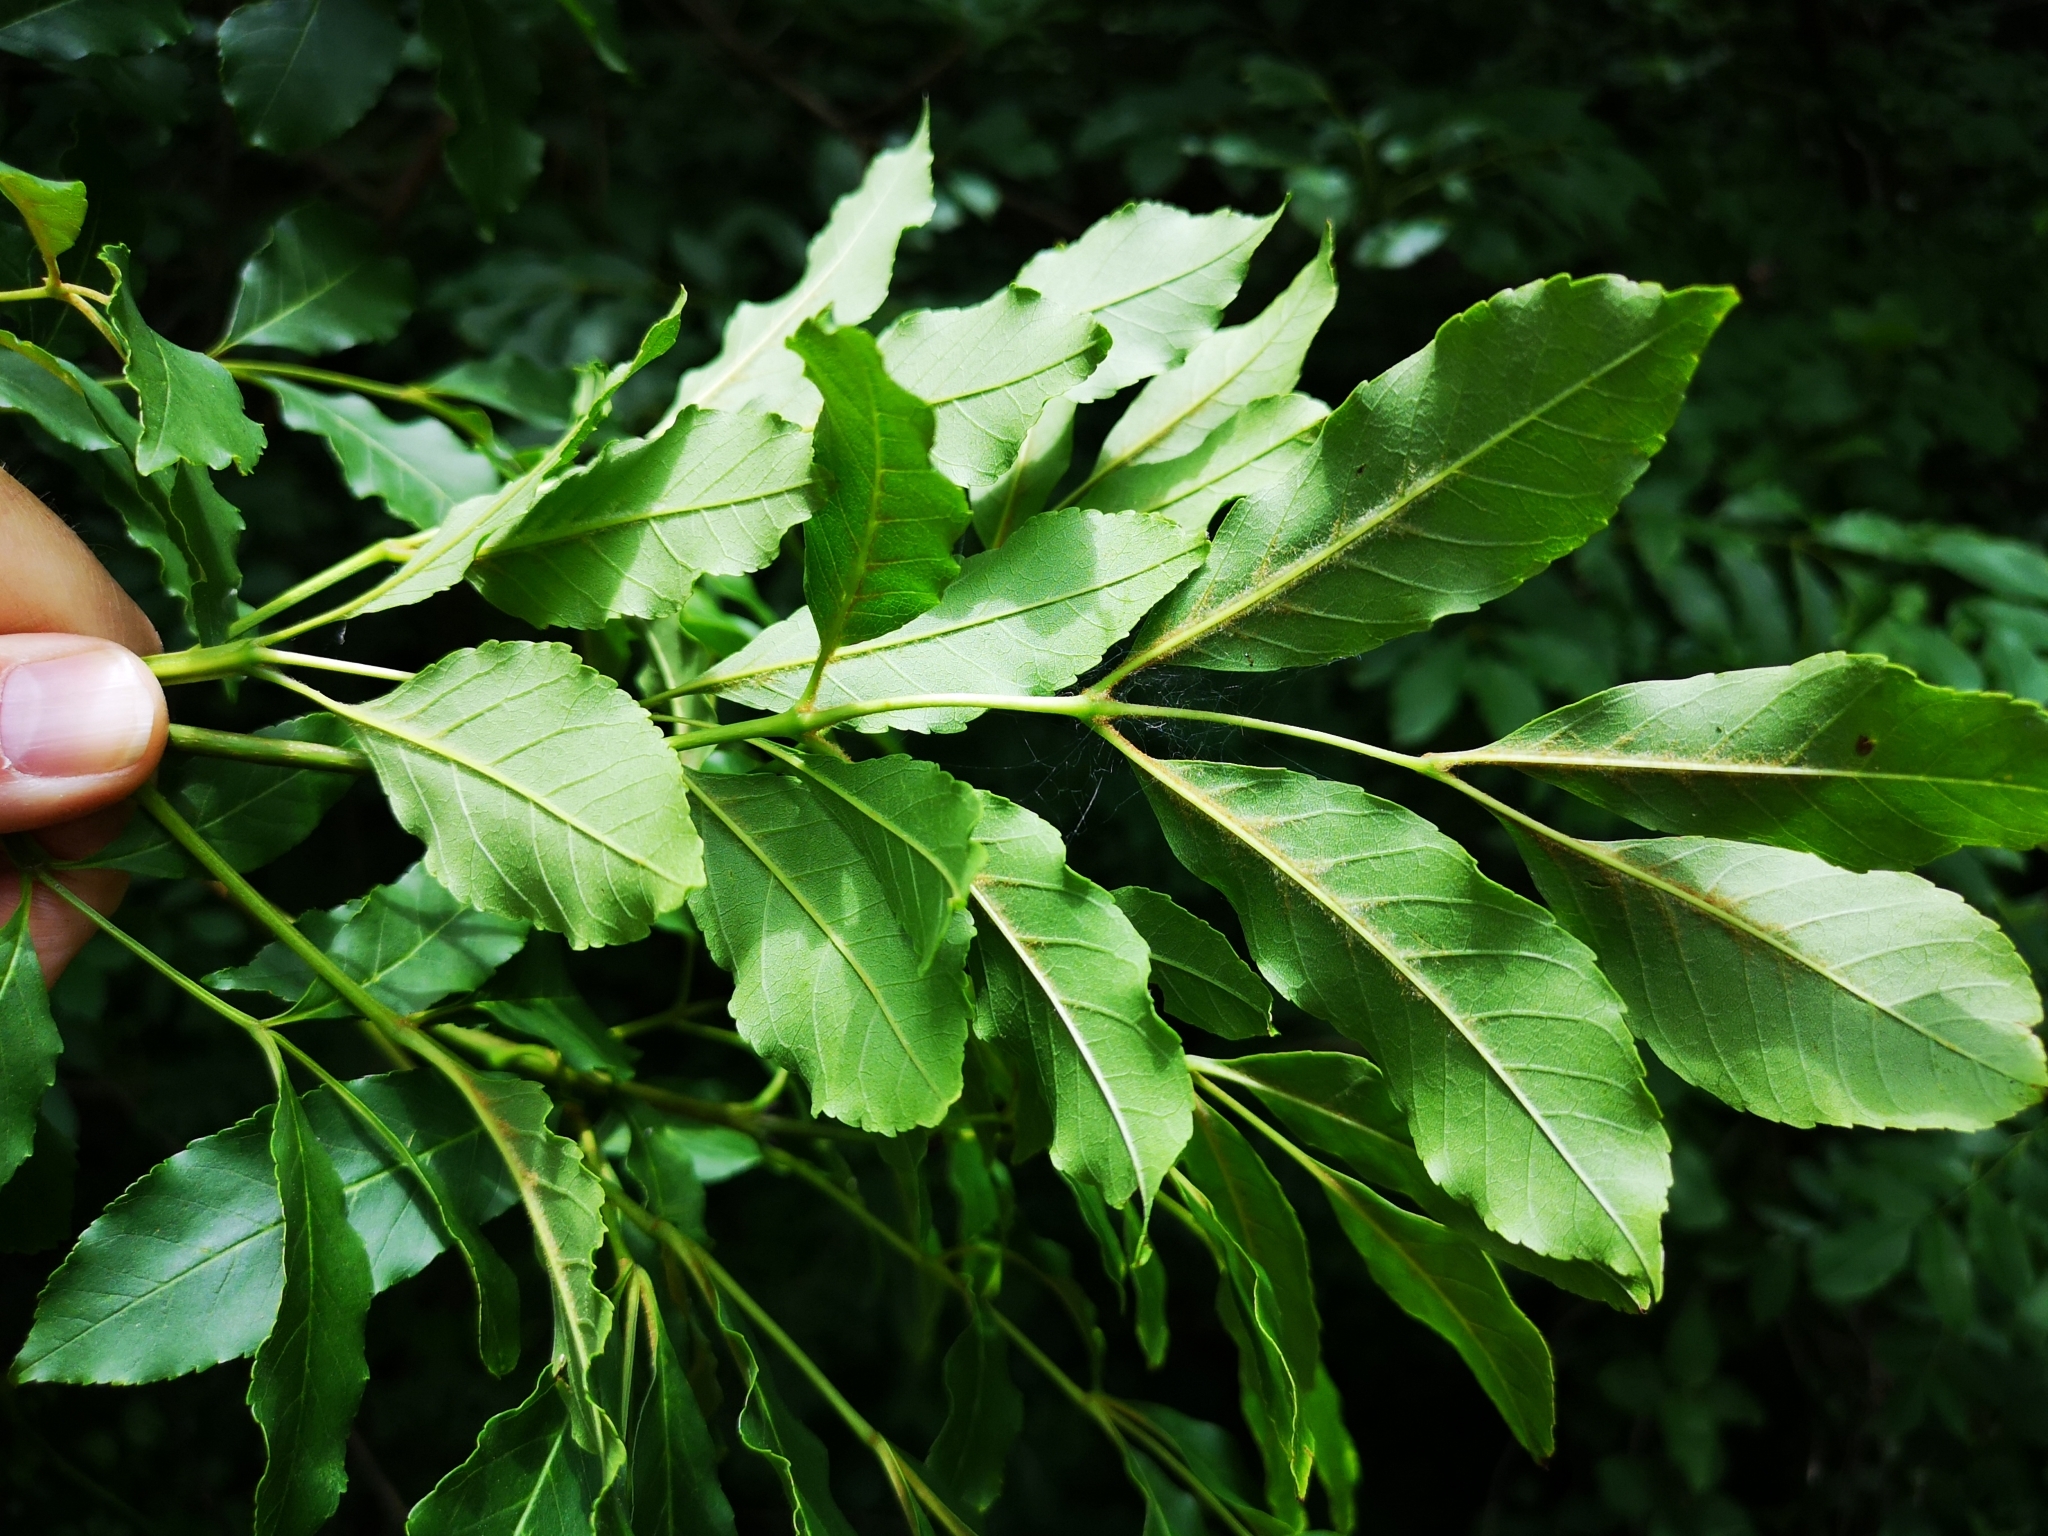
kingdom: Plantae
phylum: Tracheophyta
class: Magnoliopsida
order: Lamiales
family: Oleaceae
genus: Fraxinus
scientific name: Fraxinus ornus
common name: Manna ash
